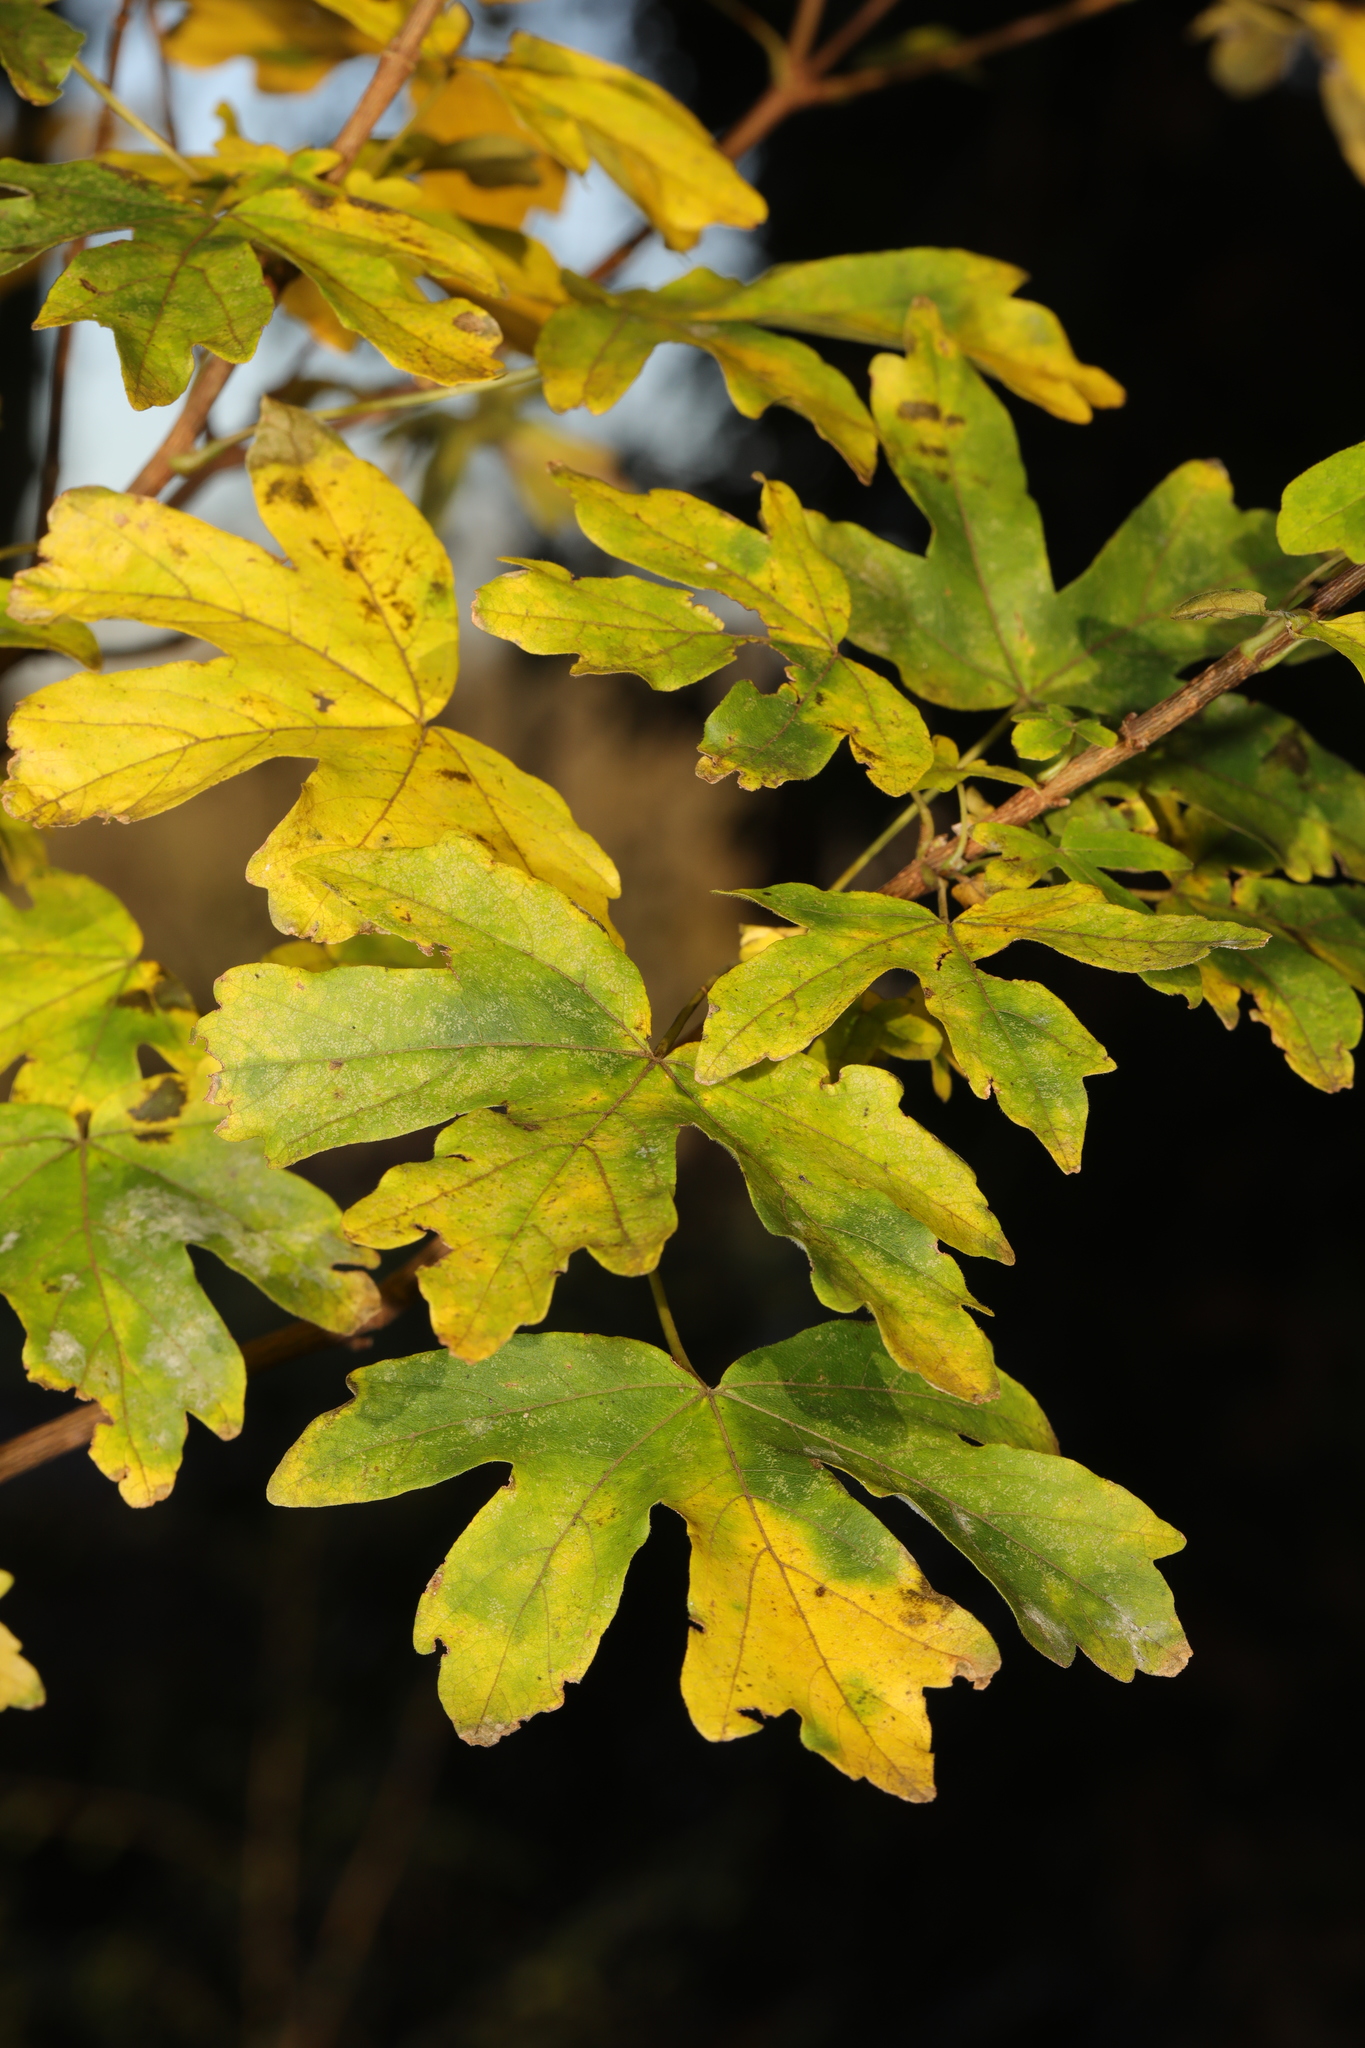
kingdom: Plantae
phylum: Tracheophyta
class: Magnoliopsida
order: Sapindales
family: Sapindaceae
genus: Acer
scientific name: Acer campestre
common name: Field maple
